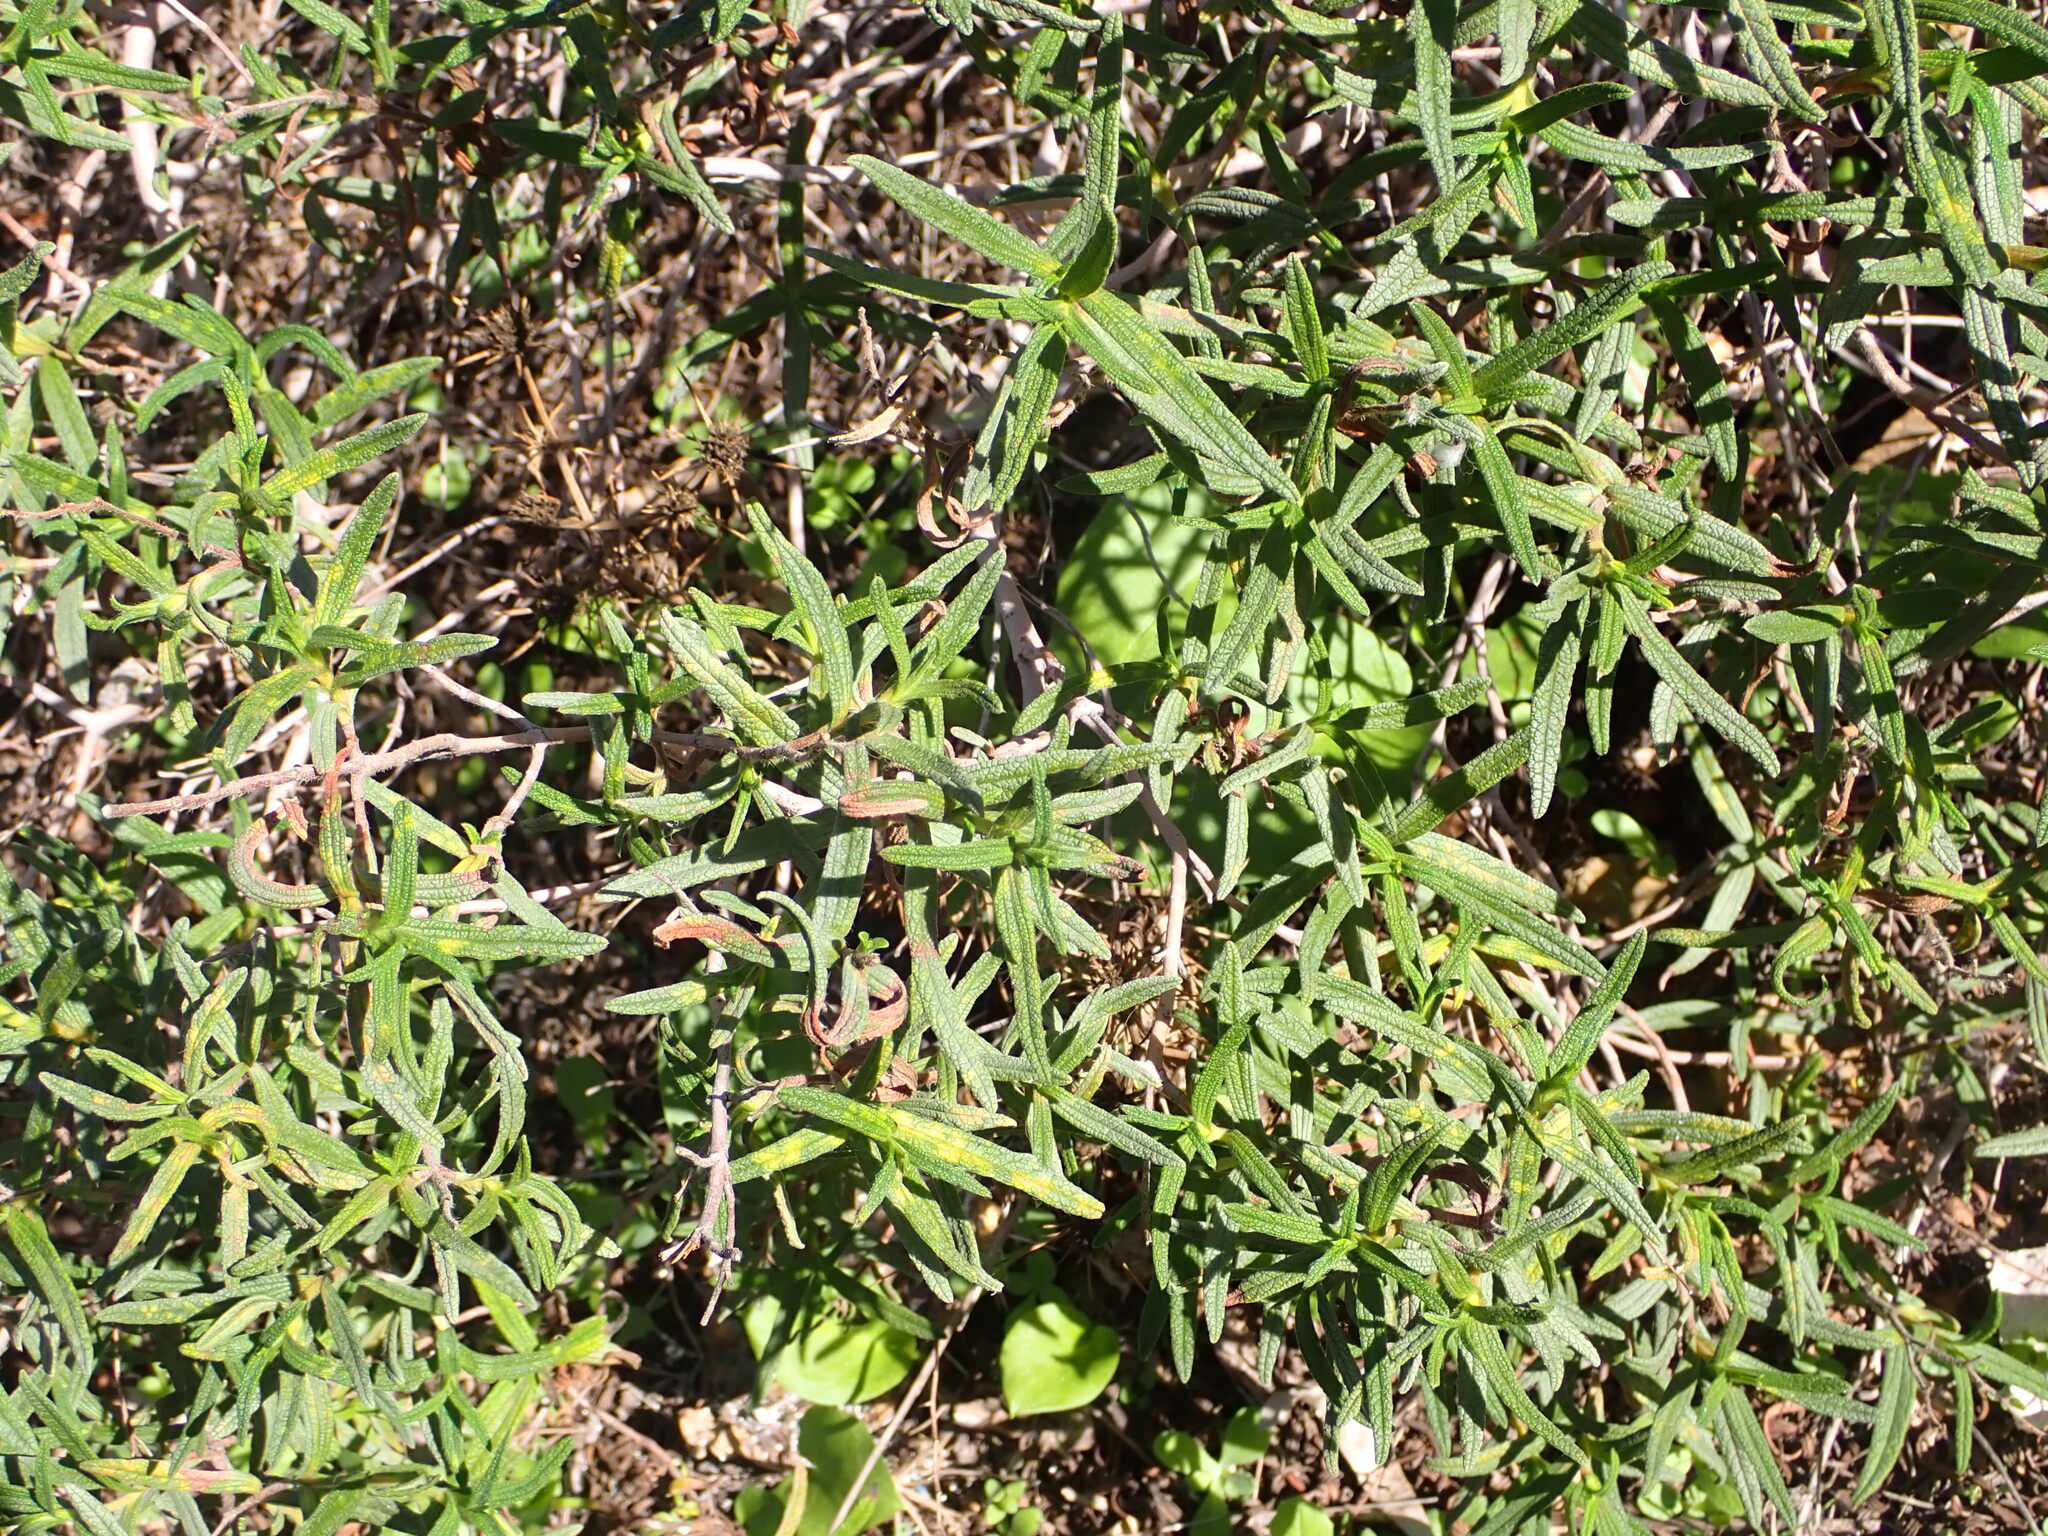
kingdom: Plantae
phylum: Tracheophyta
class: Magnoliopsida
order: Malvales
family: Cistaceae
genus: Cistus
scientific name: Cistus monspeliensis
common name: Montpelier cistus
